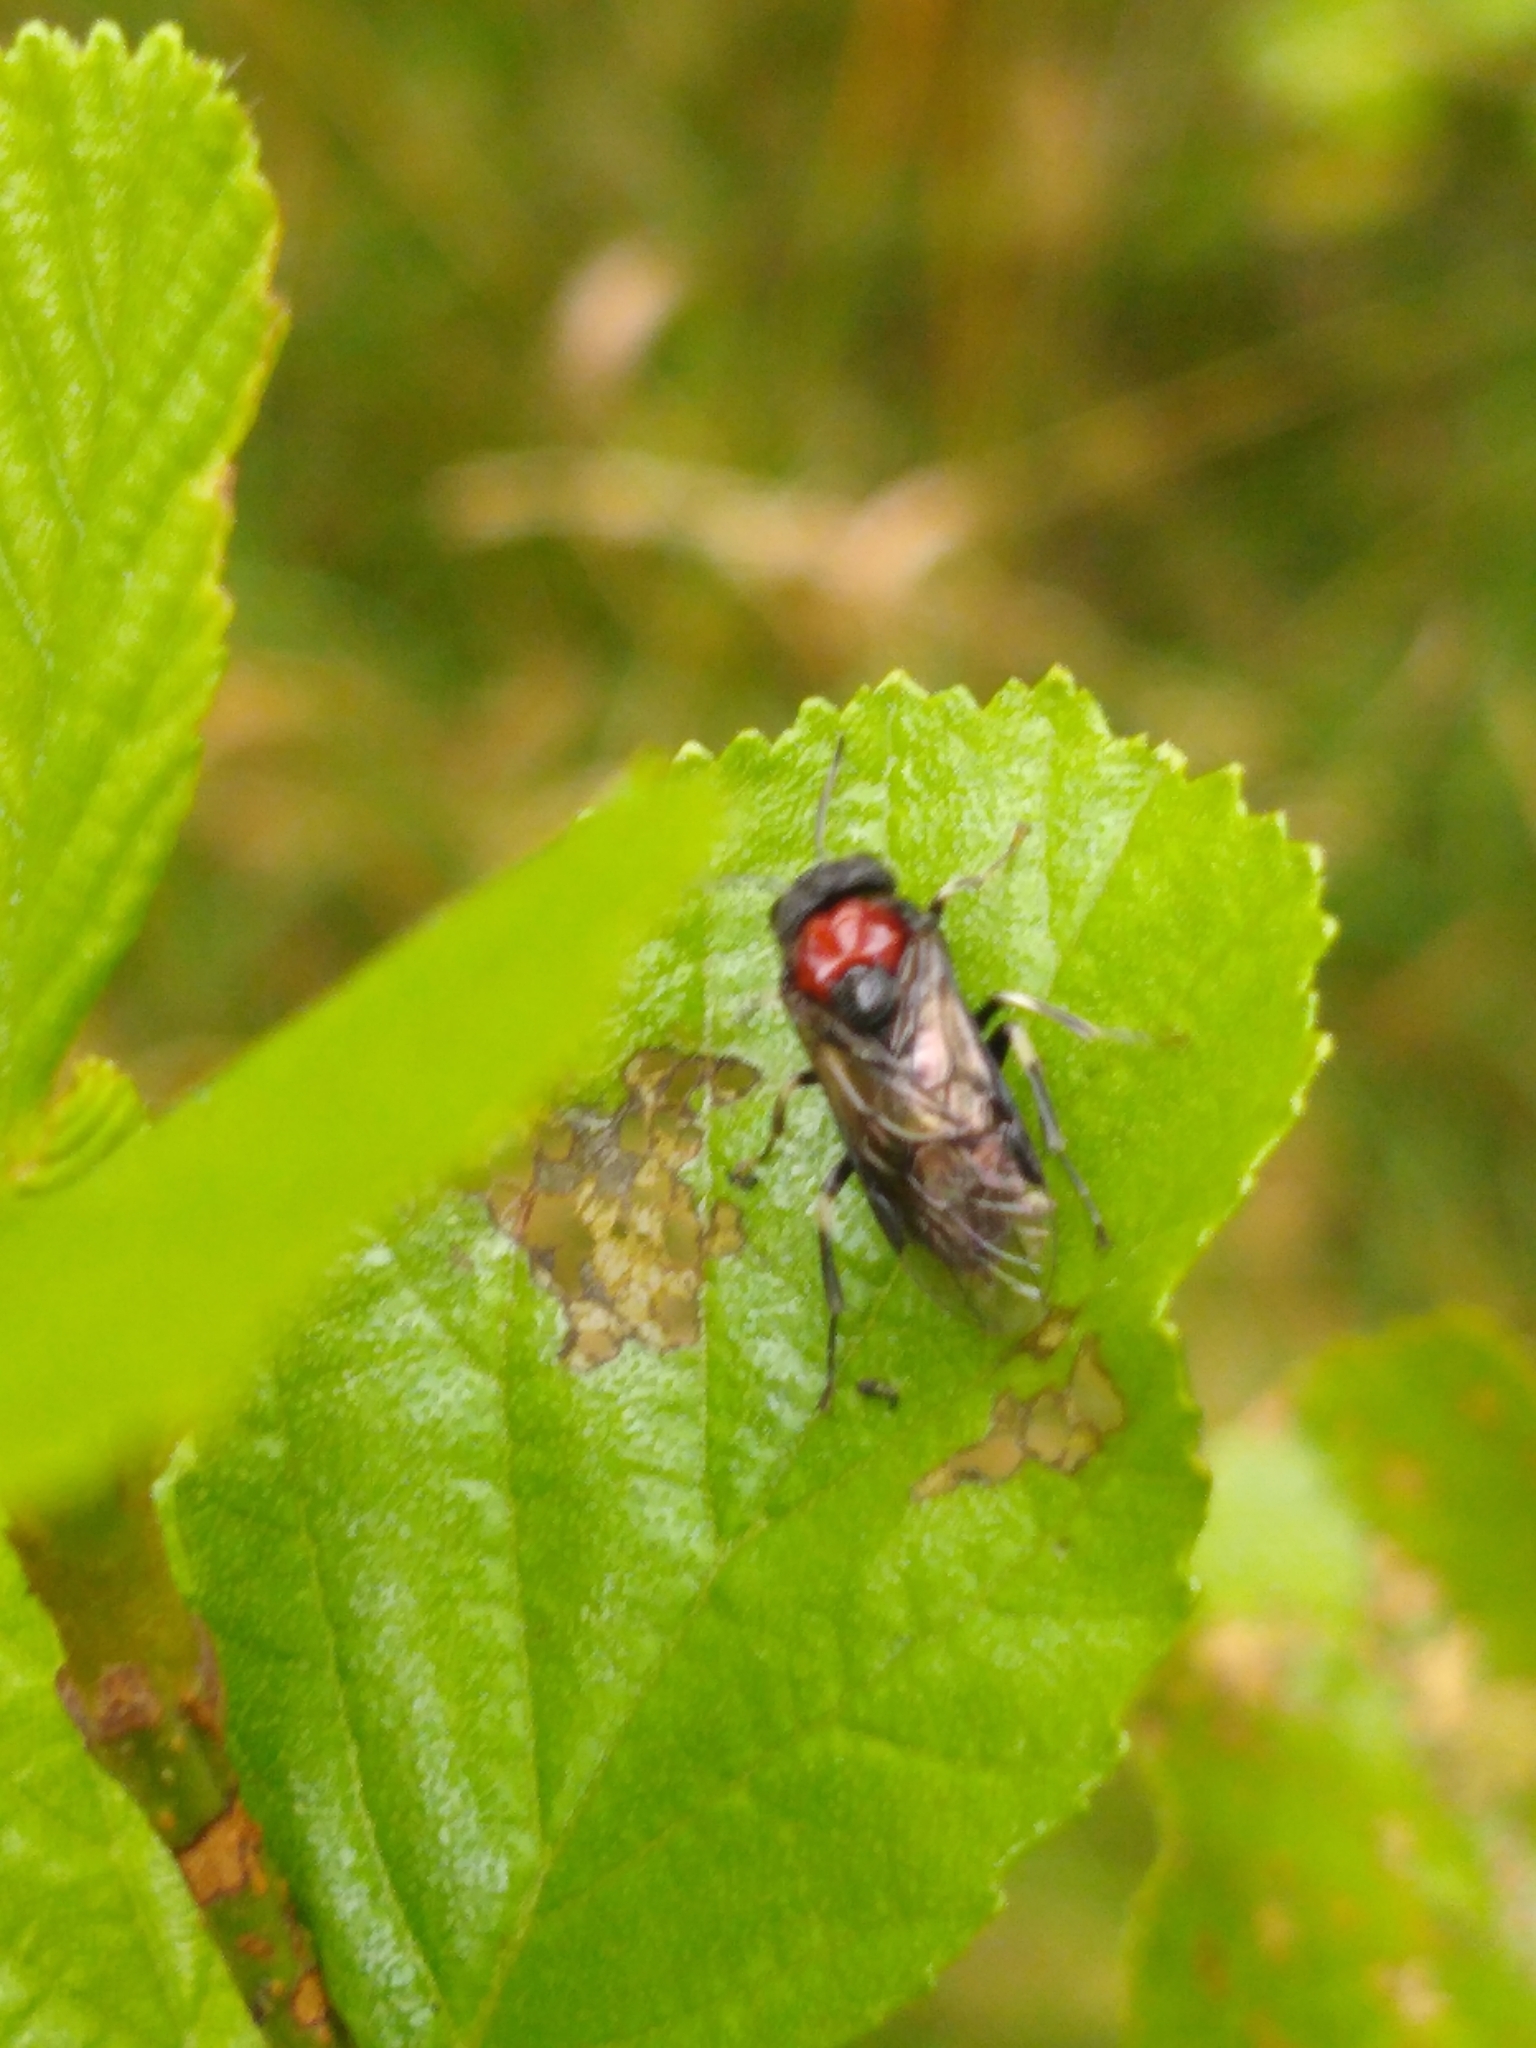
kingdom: Animalia
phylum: Arthropoda
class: Insecta
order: Hymenoptera
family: Tenthredinidae
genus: Eriocampa
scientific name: Eriocampa ovata
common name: Alder wooly sawfly
